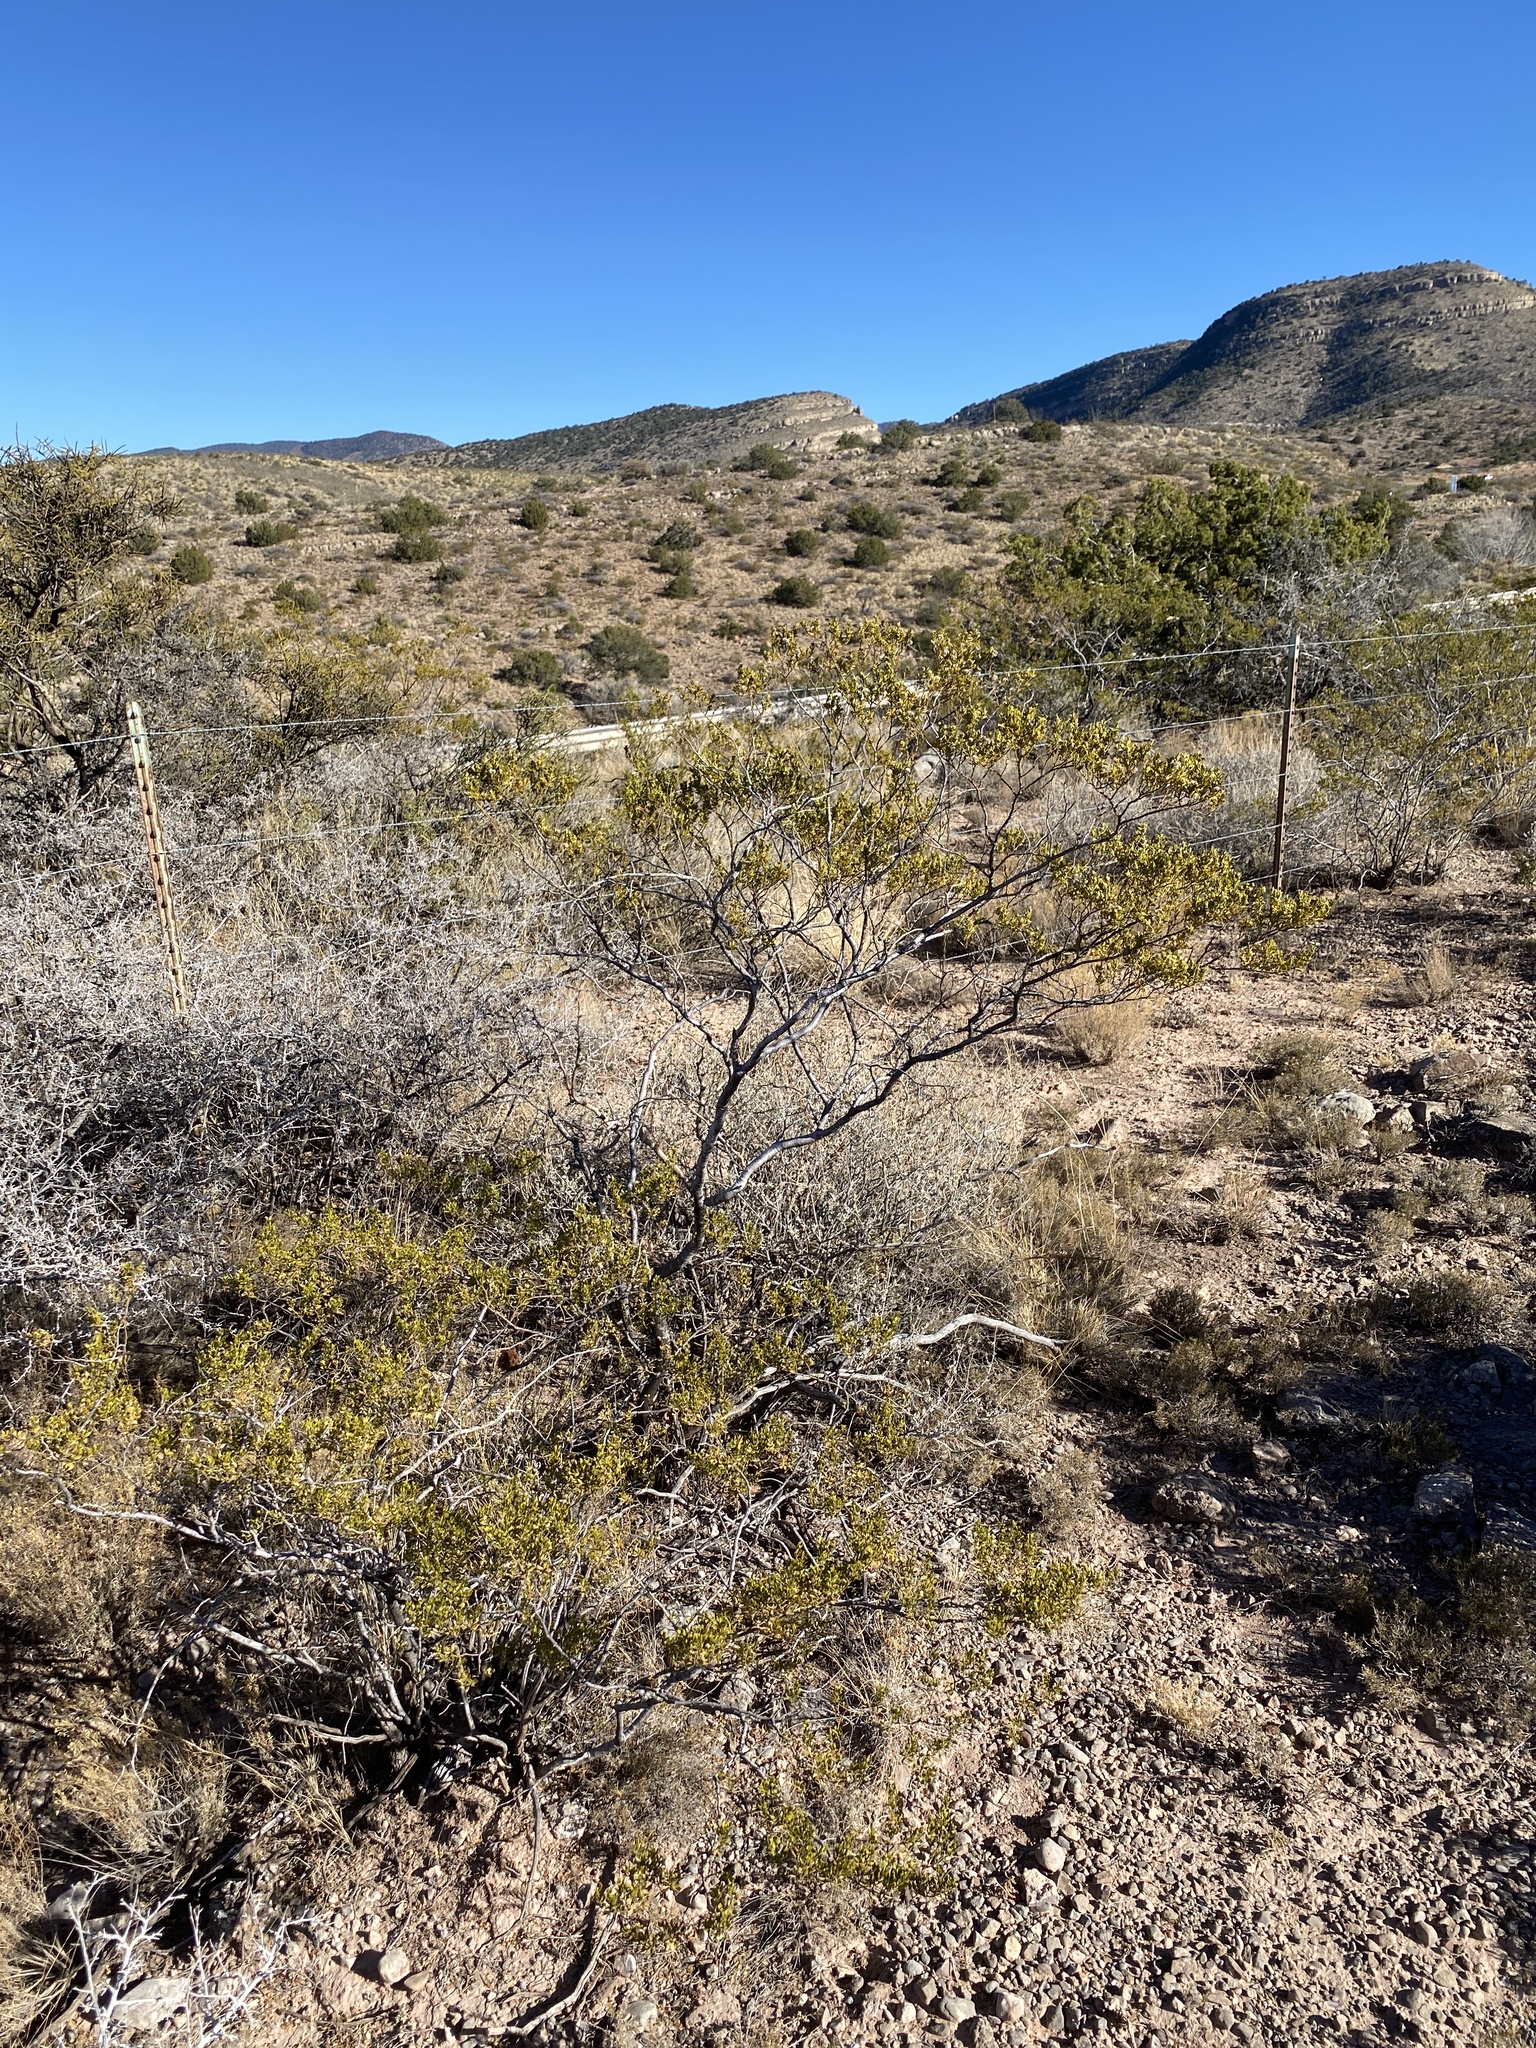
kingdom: Plantae
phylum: Tracheophyta
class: Magnoliopsida
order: Zygophyllales
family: Zygophyllaceae
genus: Larrea
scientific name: Larrea tridentata
